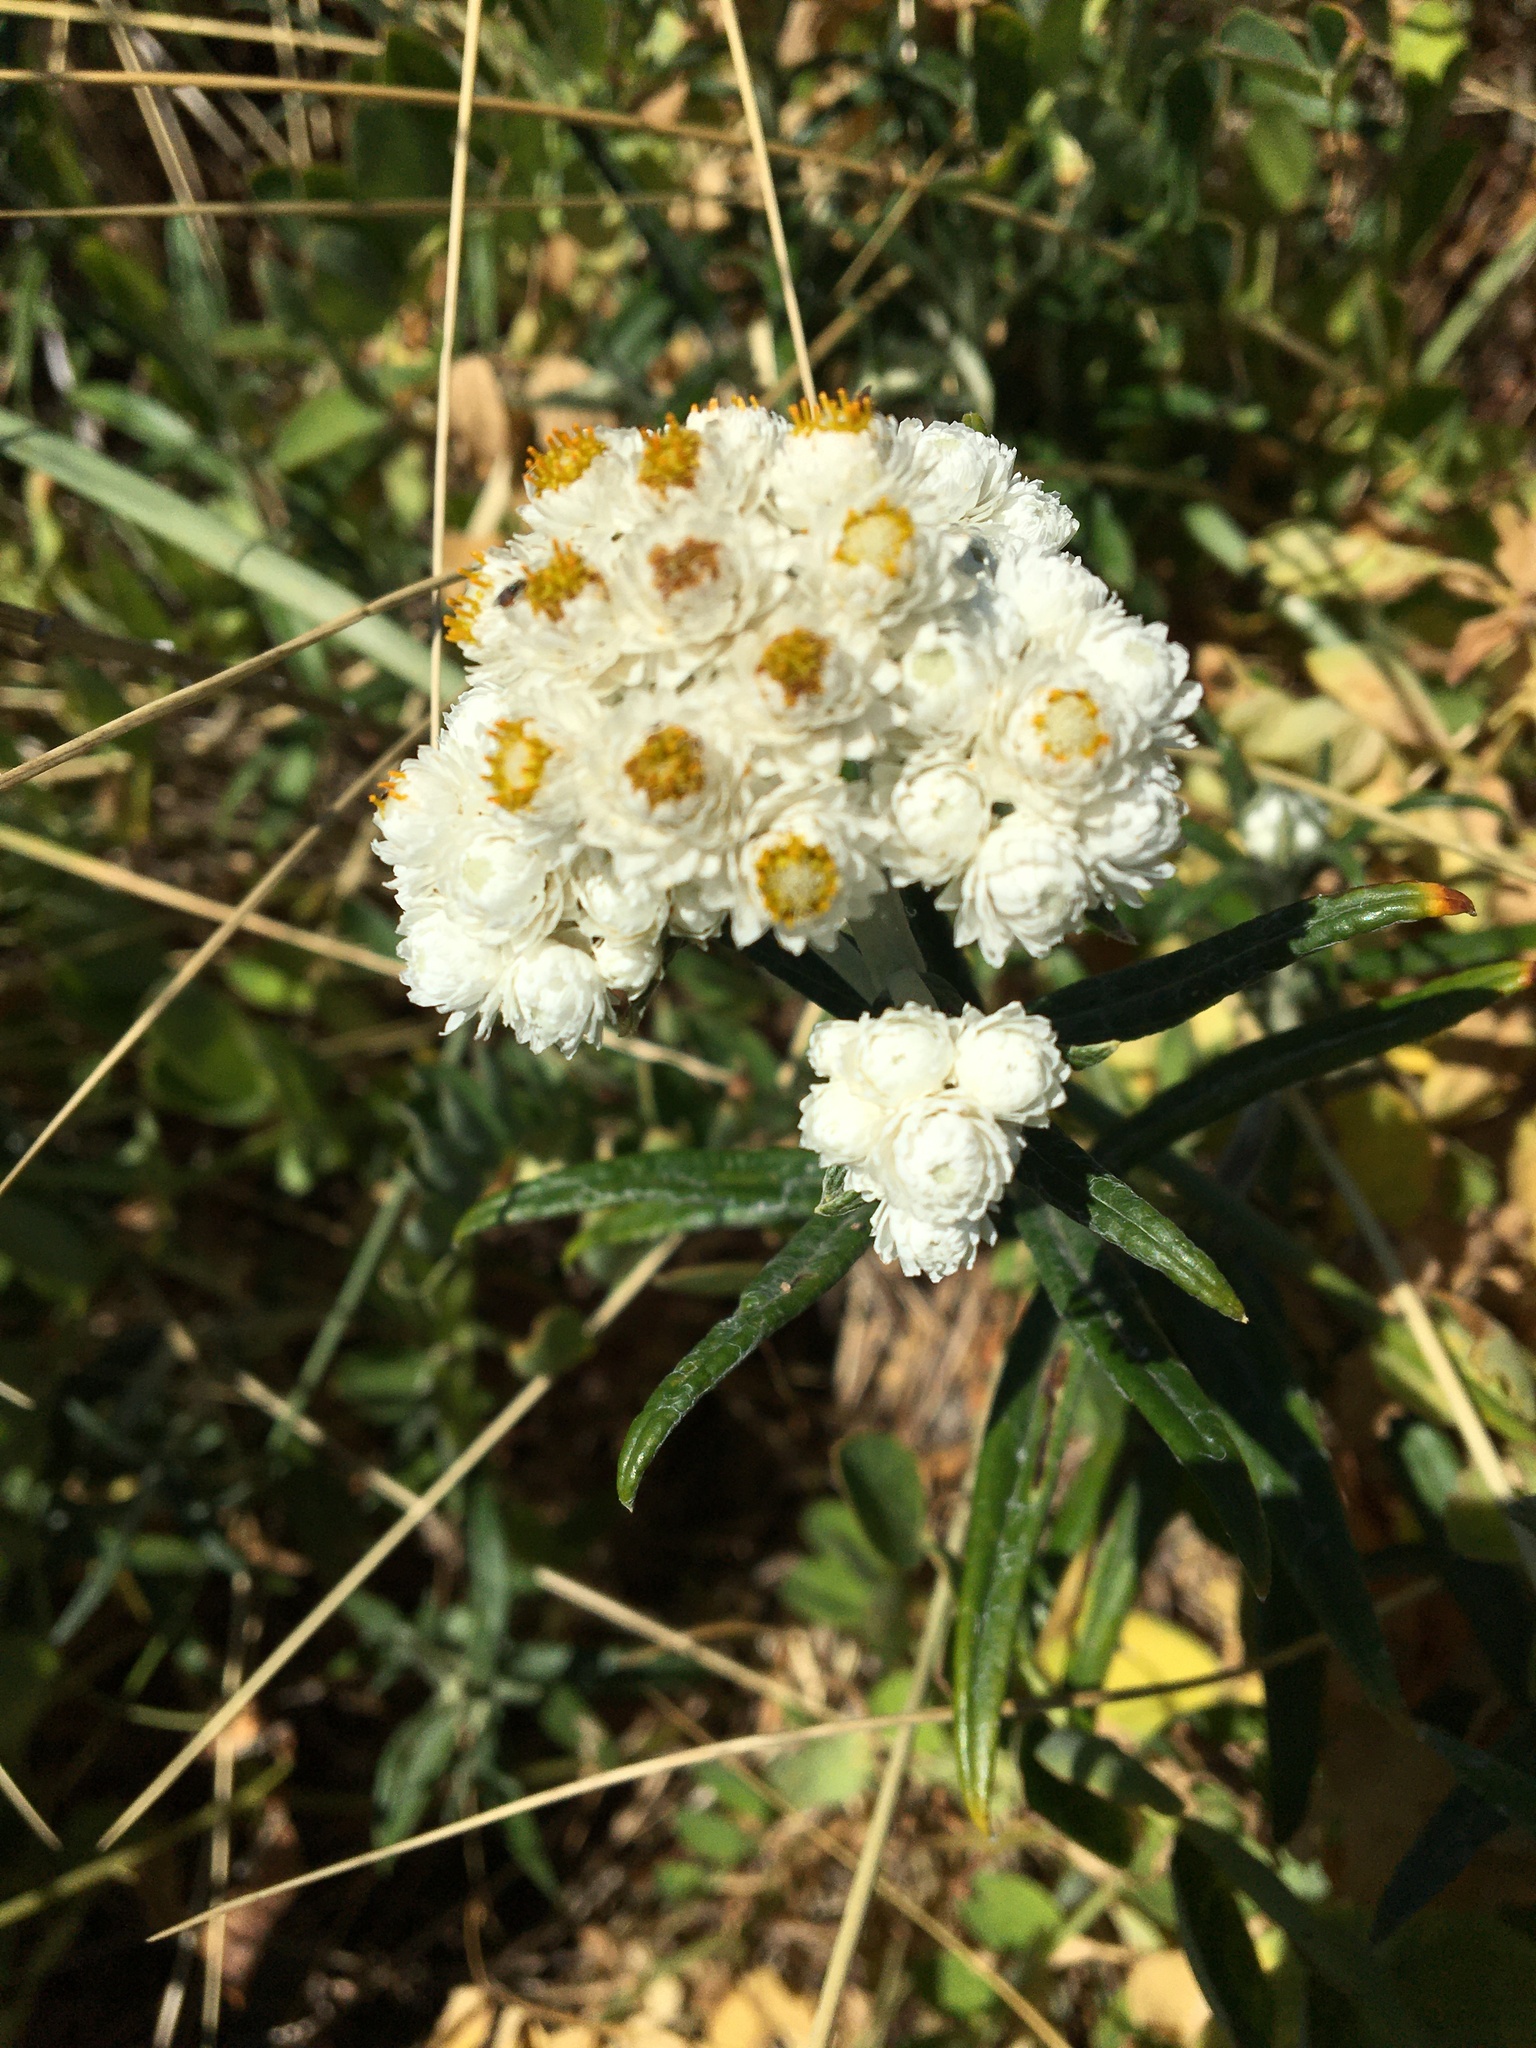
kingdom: Plantae
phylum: Tracheophyta
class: Magnoliopsida
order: Asterales
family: Asteraceae
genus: Anaphalis
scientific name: Anaphalis margaritacea
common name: Pearly everlasting
